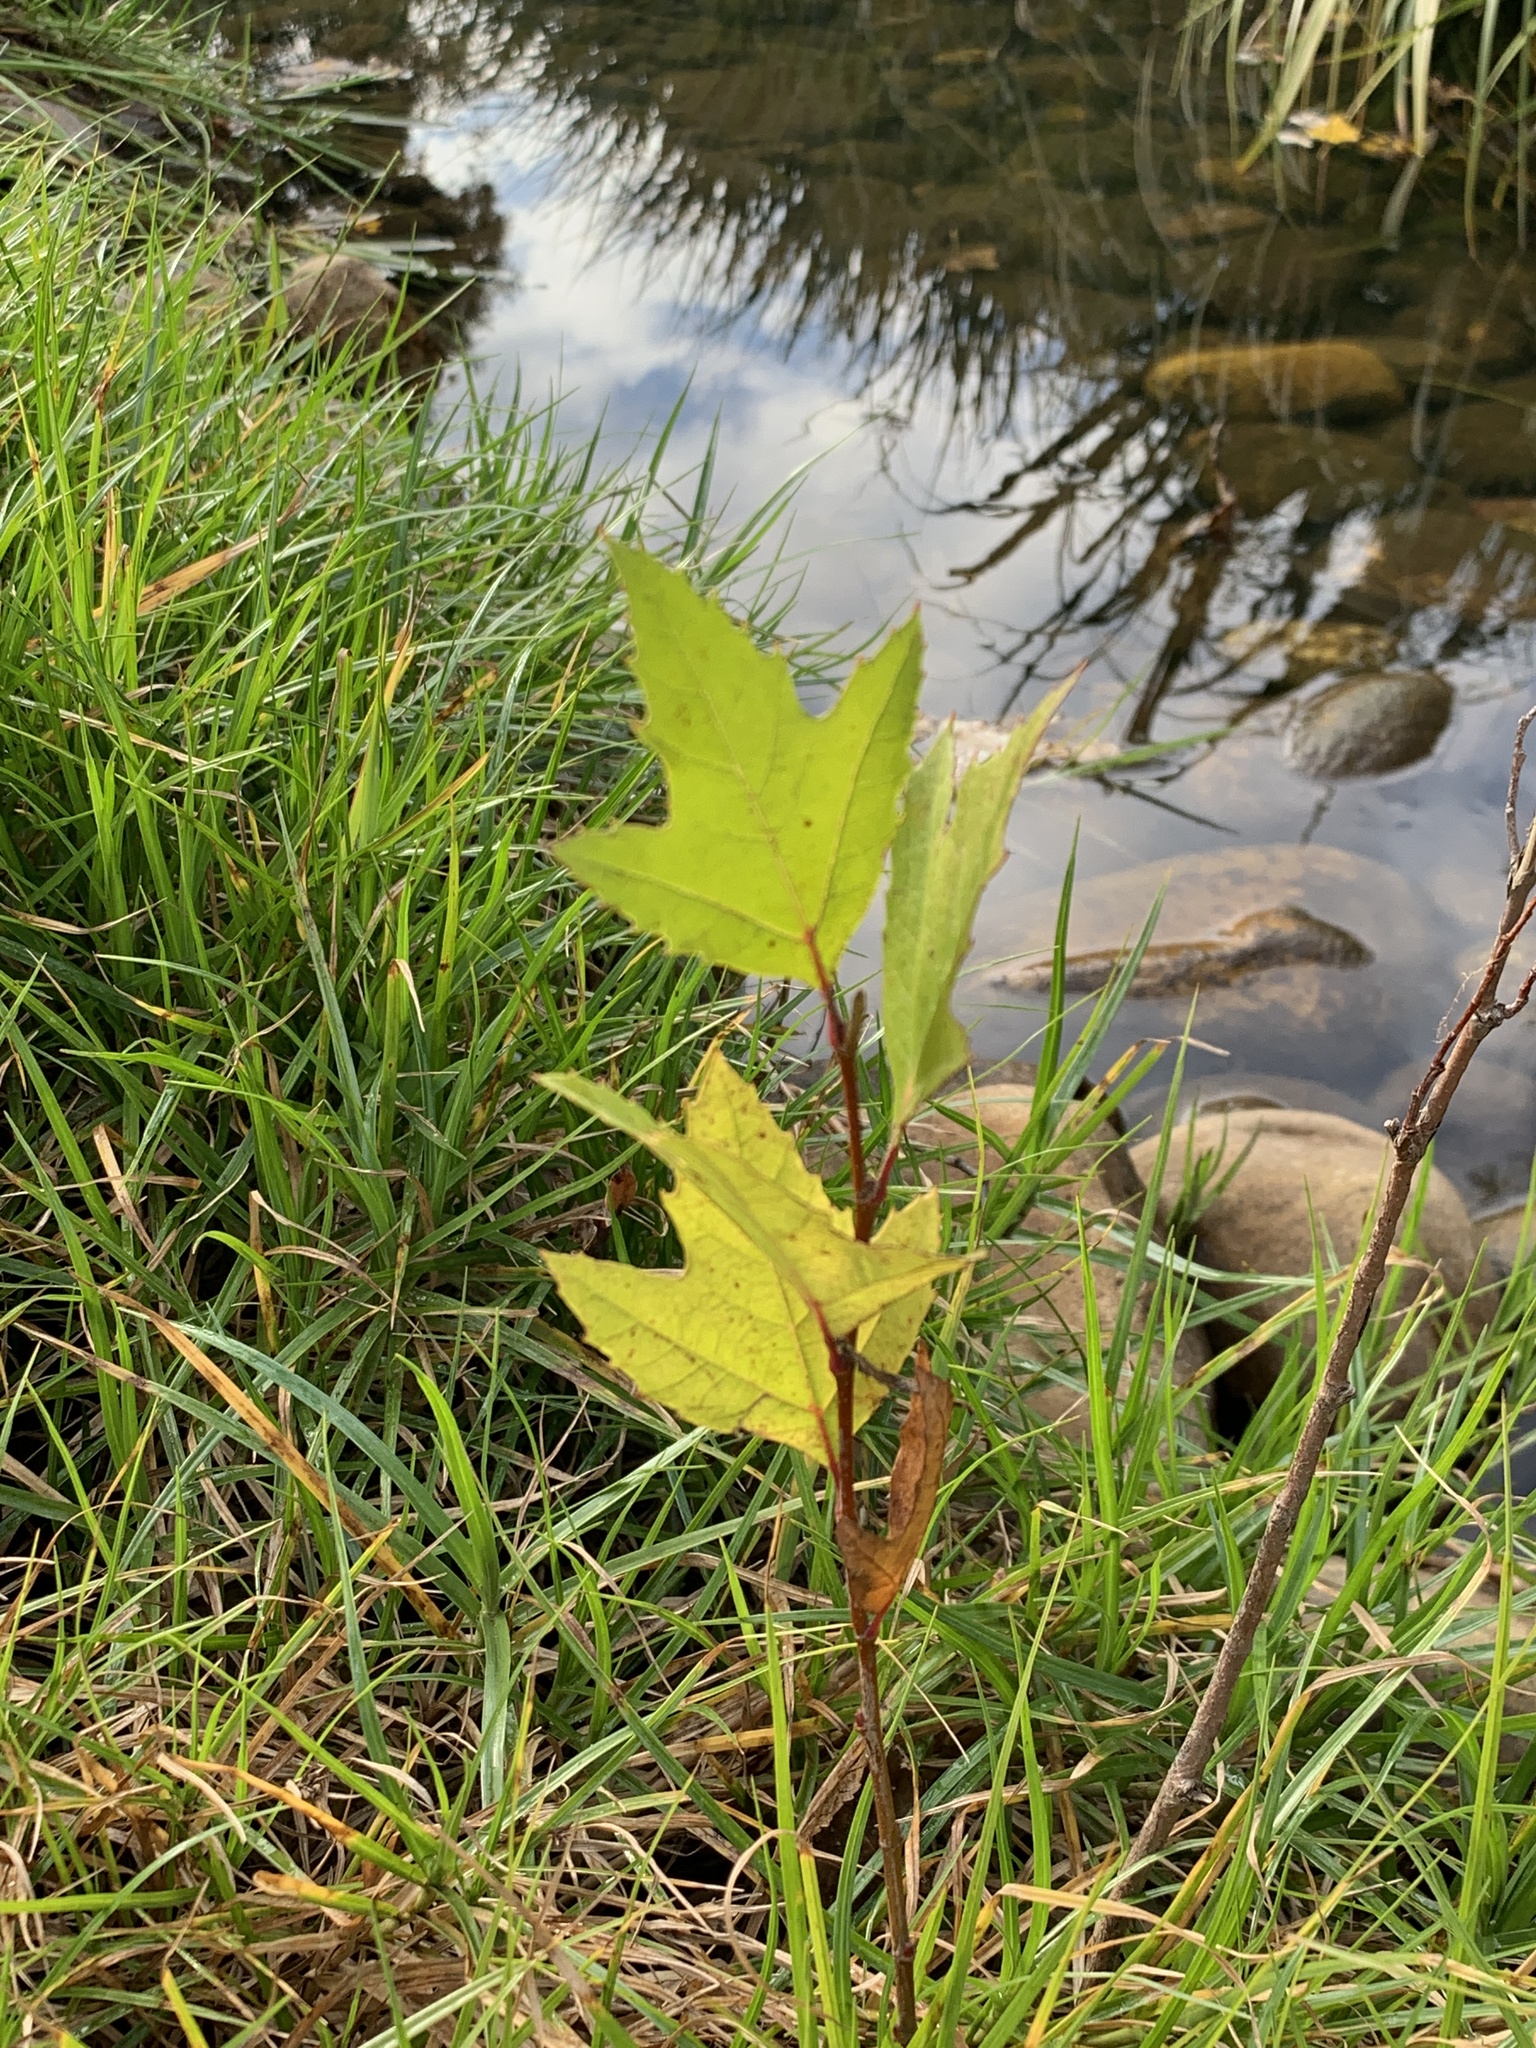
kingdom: Plantae
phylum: Tracheophyta
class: Magnoliopsida
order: Proteales
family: Platanaceae
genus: Platanus
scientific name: Platanus hispanica
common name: London plane
